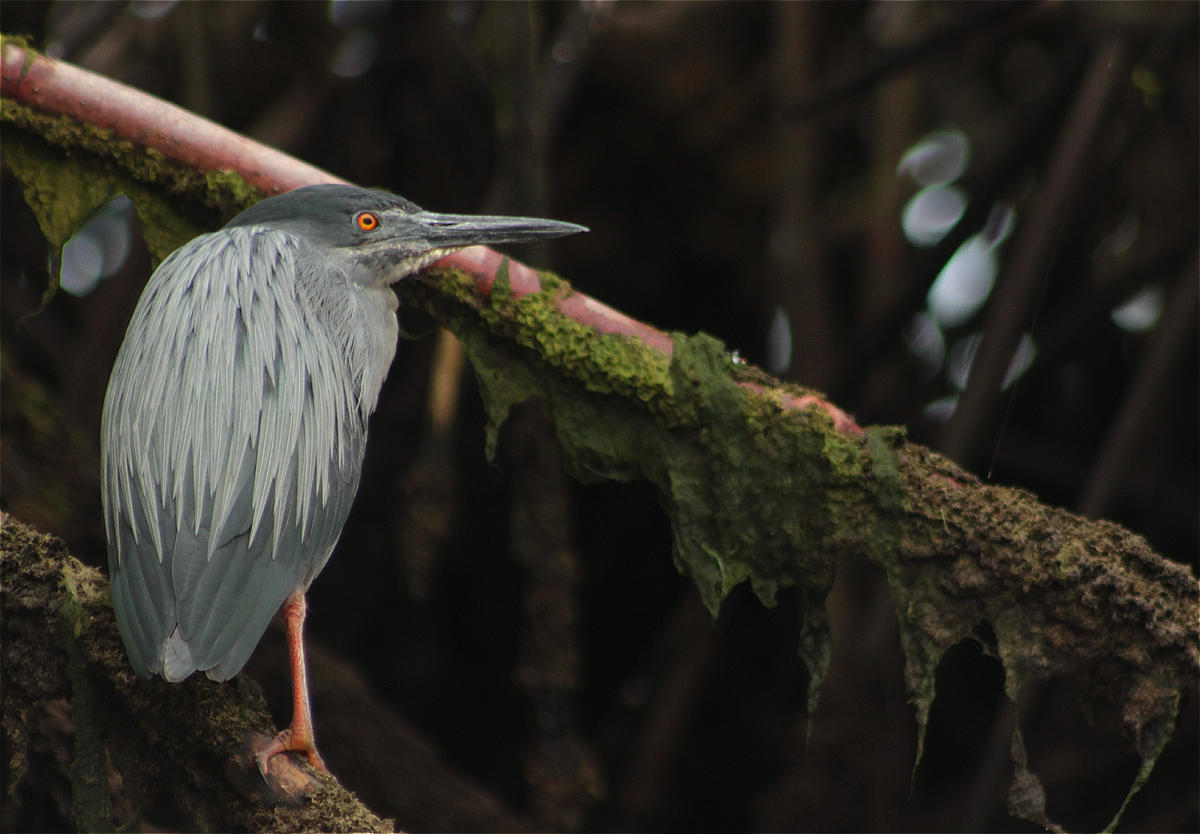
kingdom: Animalia
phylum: Chordata
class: Aves
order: Pelecaniformes
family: Ardeidae
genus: Butorides
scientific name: Butorides striata
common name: Striated heron
